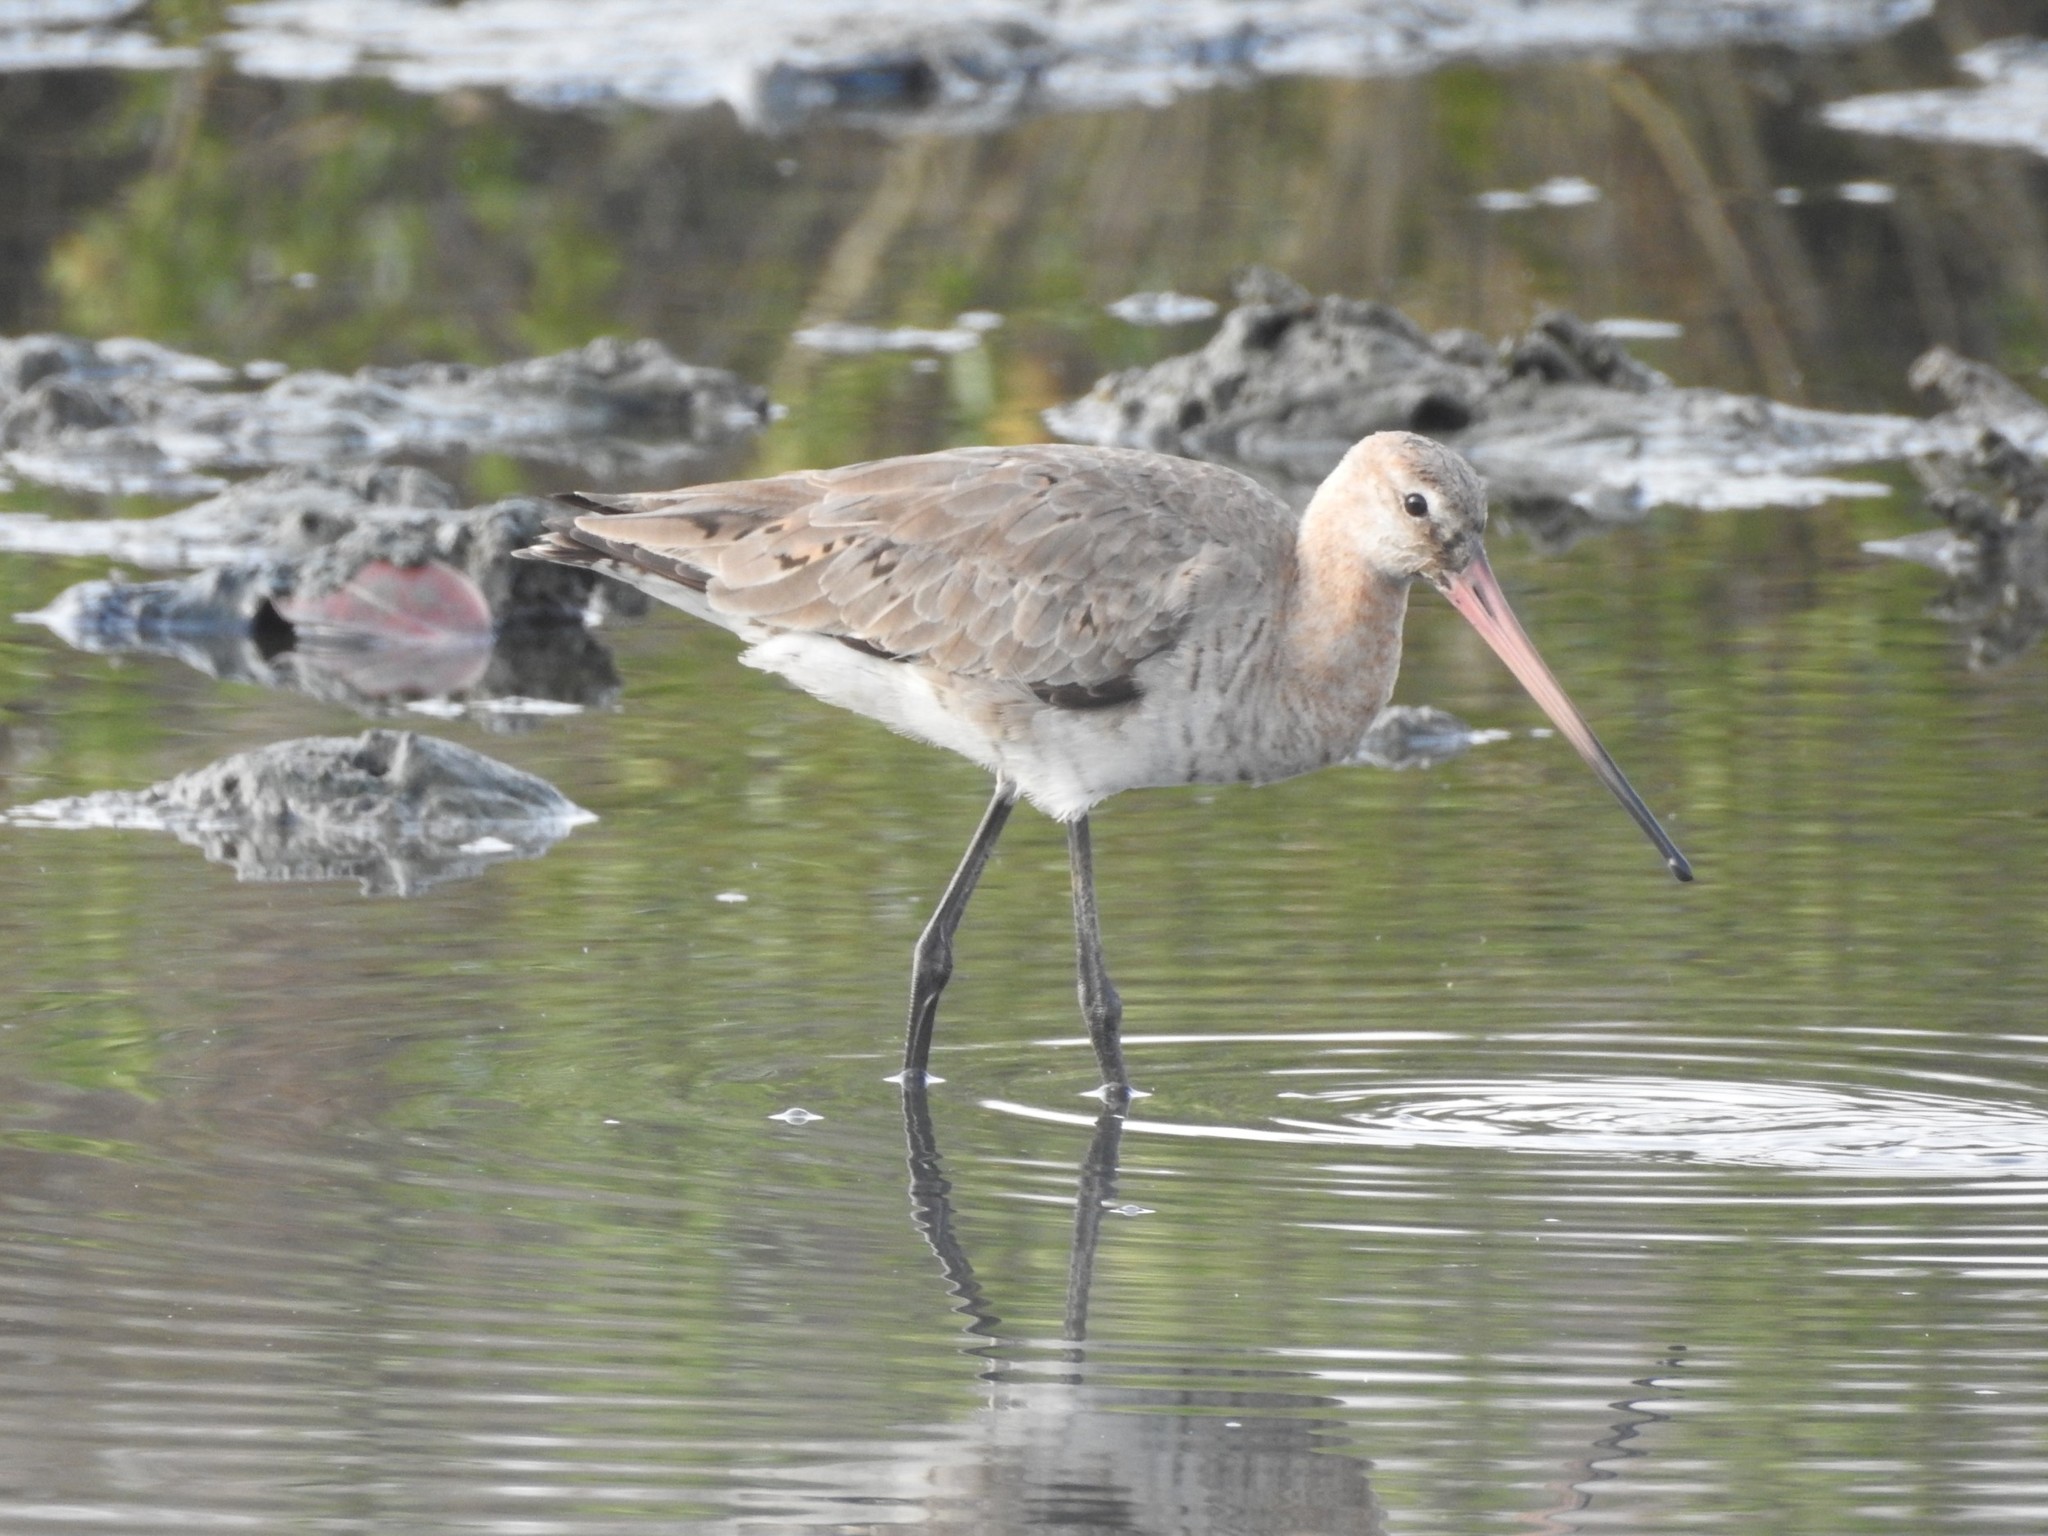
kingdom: Animalia
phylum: Chordata
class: Aves
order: Charadriiformes
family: Scolopacidae
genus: Limosa
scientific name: Limosa limosa
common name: Black-tailed godwit
